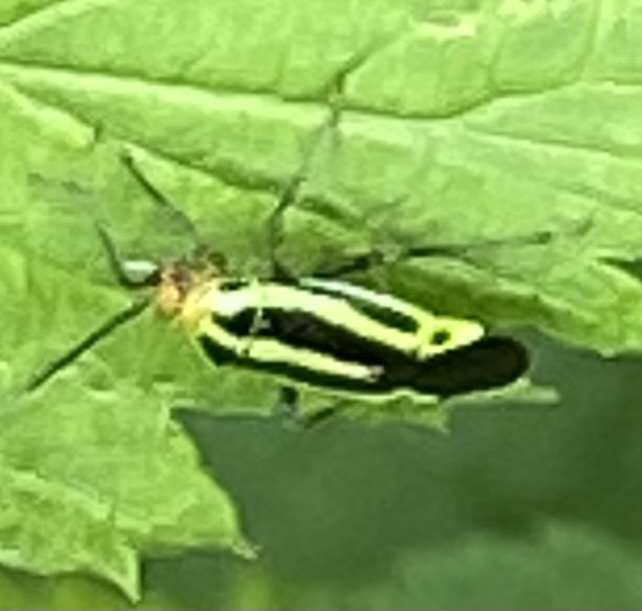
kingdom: Animalia
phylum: Arthropoda
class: Insecta
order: Hemiptera
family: Miridae
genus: Poecilocapsus
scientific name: Poecilocapsus lineatus
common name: Four-lined plant bug
